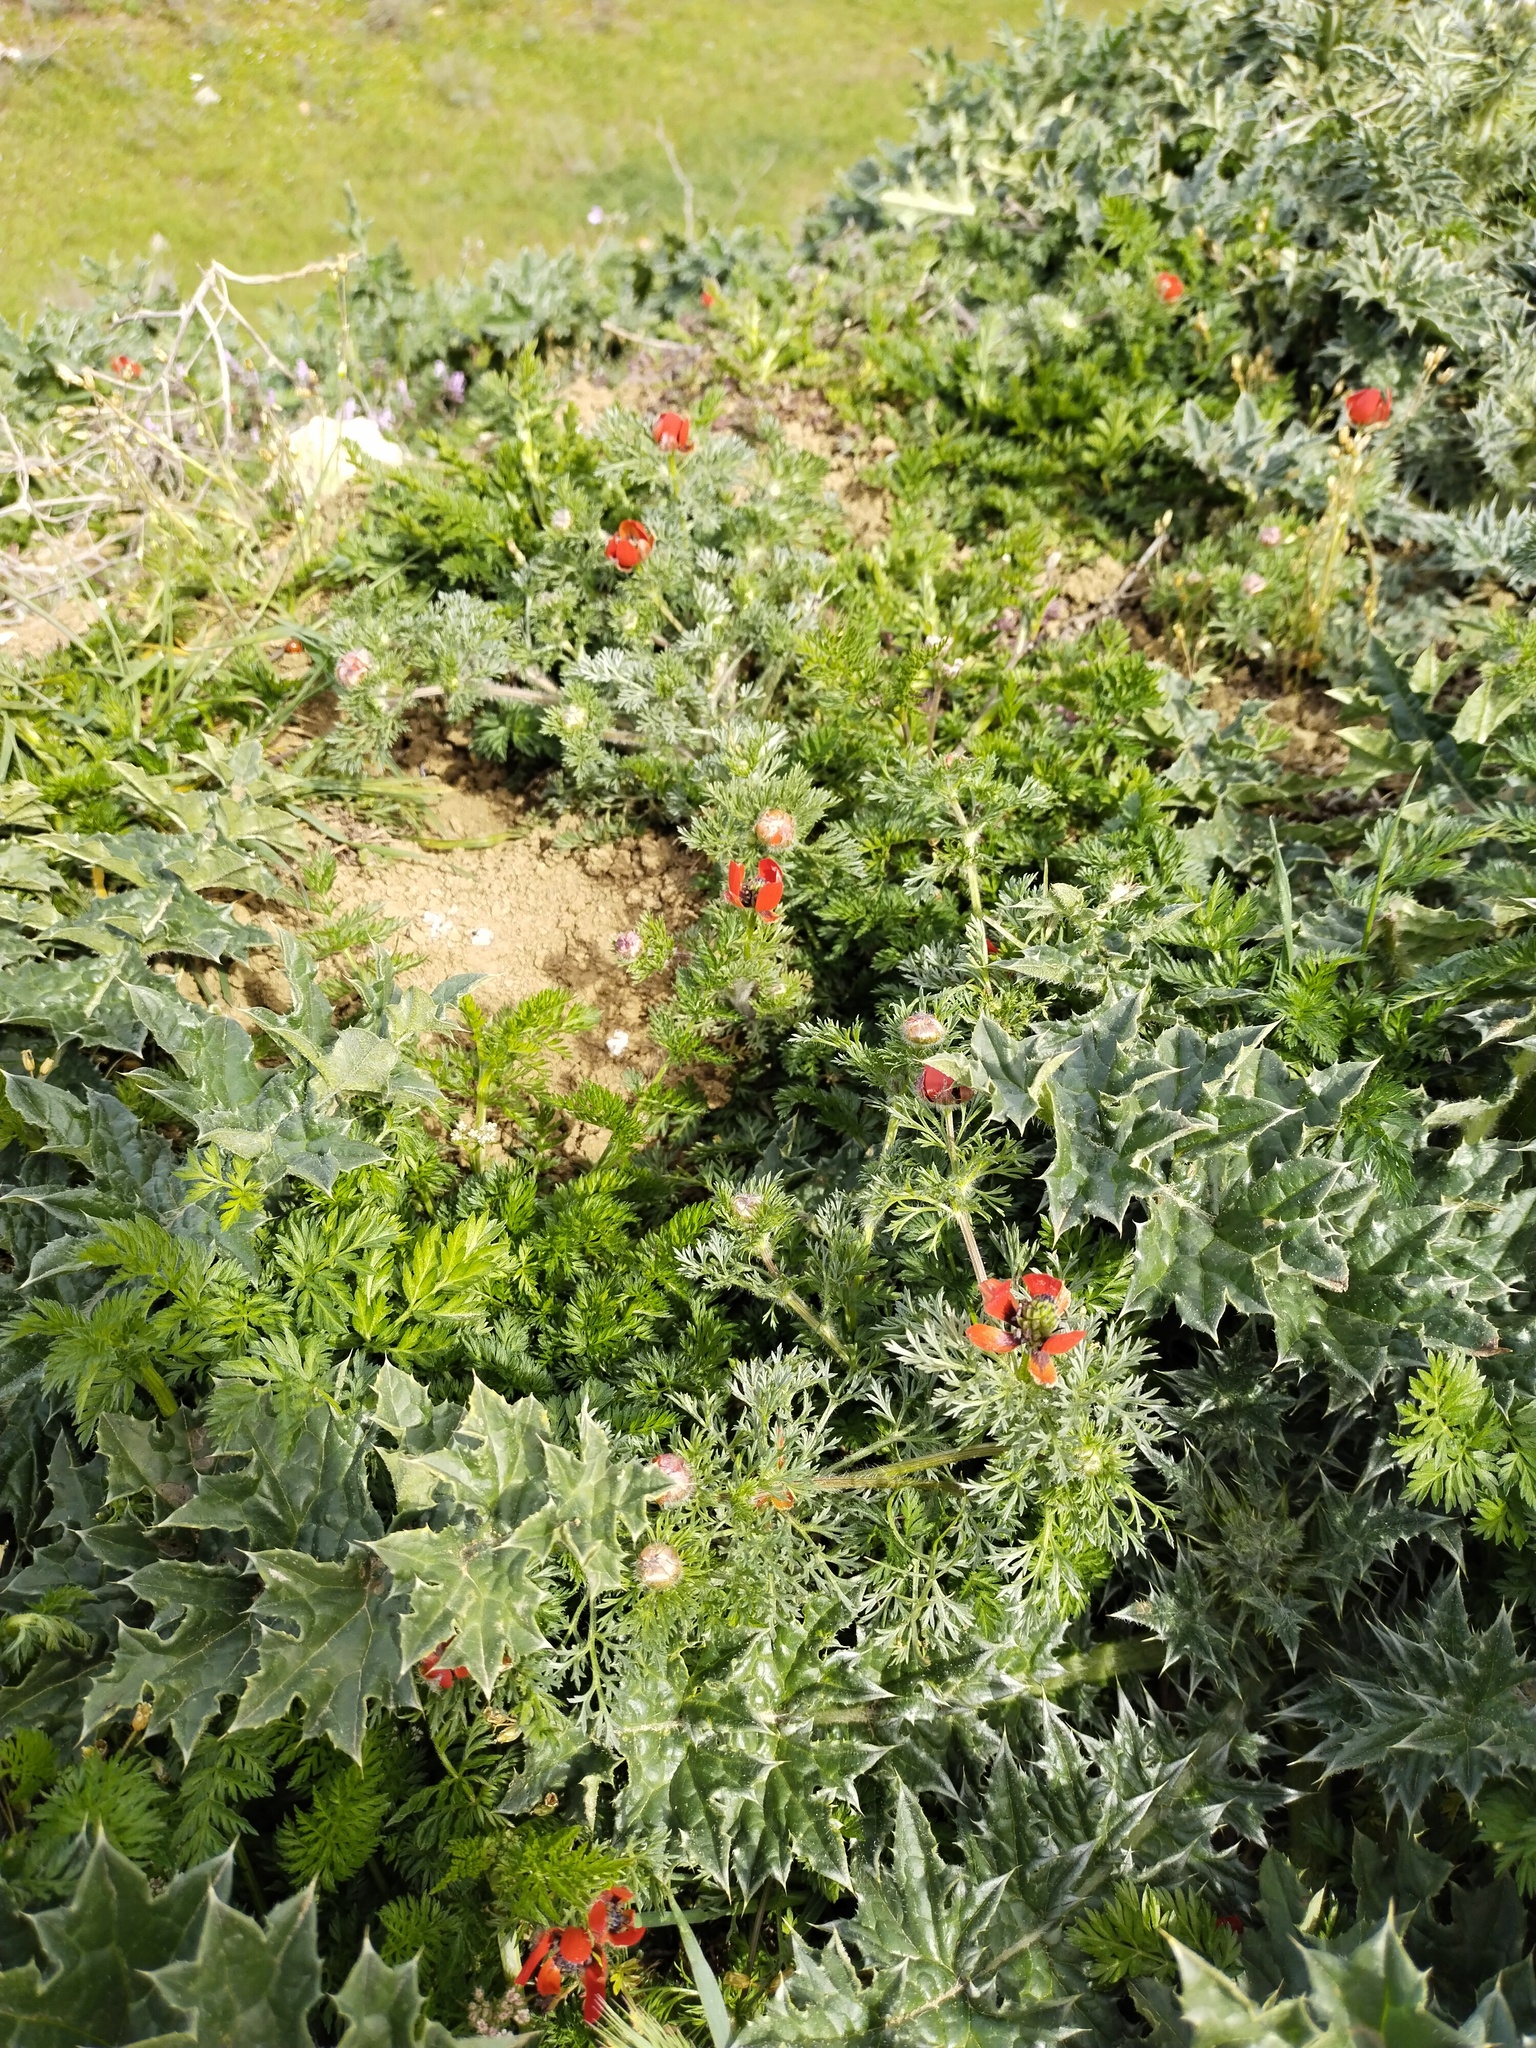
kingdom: Plantae
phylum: Tracheophyta
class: Magnoliopsida
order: Ranunculales
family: Ranunculaceae
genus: Adonis
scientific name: Adonis aestivalis
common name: Summer pheasant's-eye
